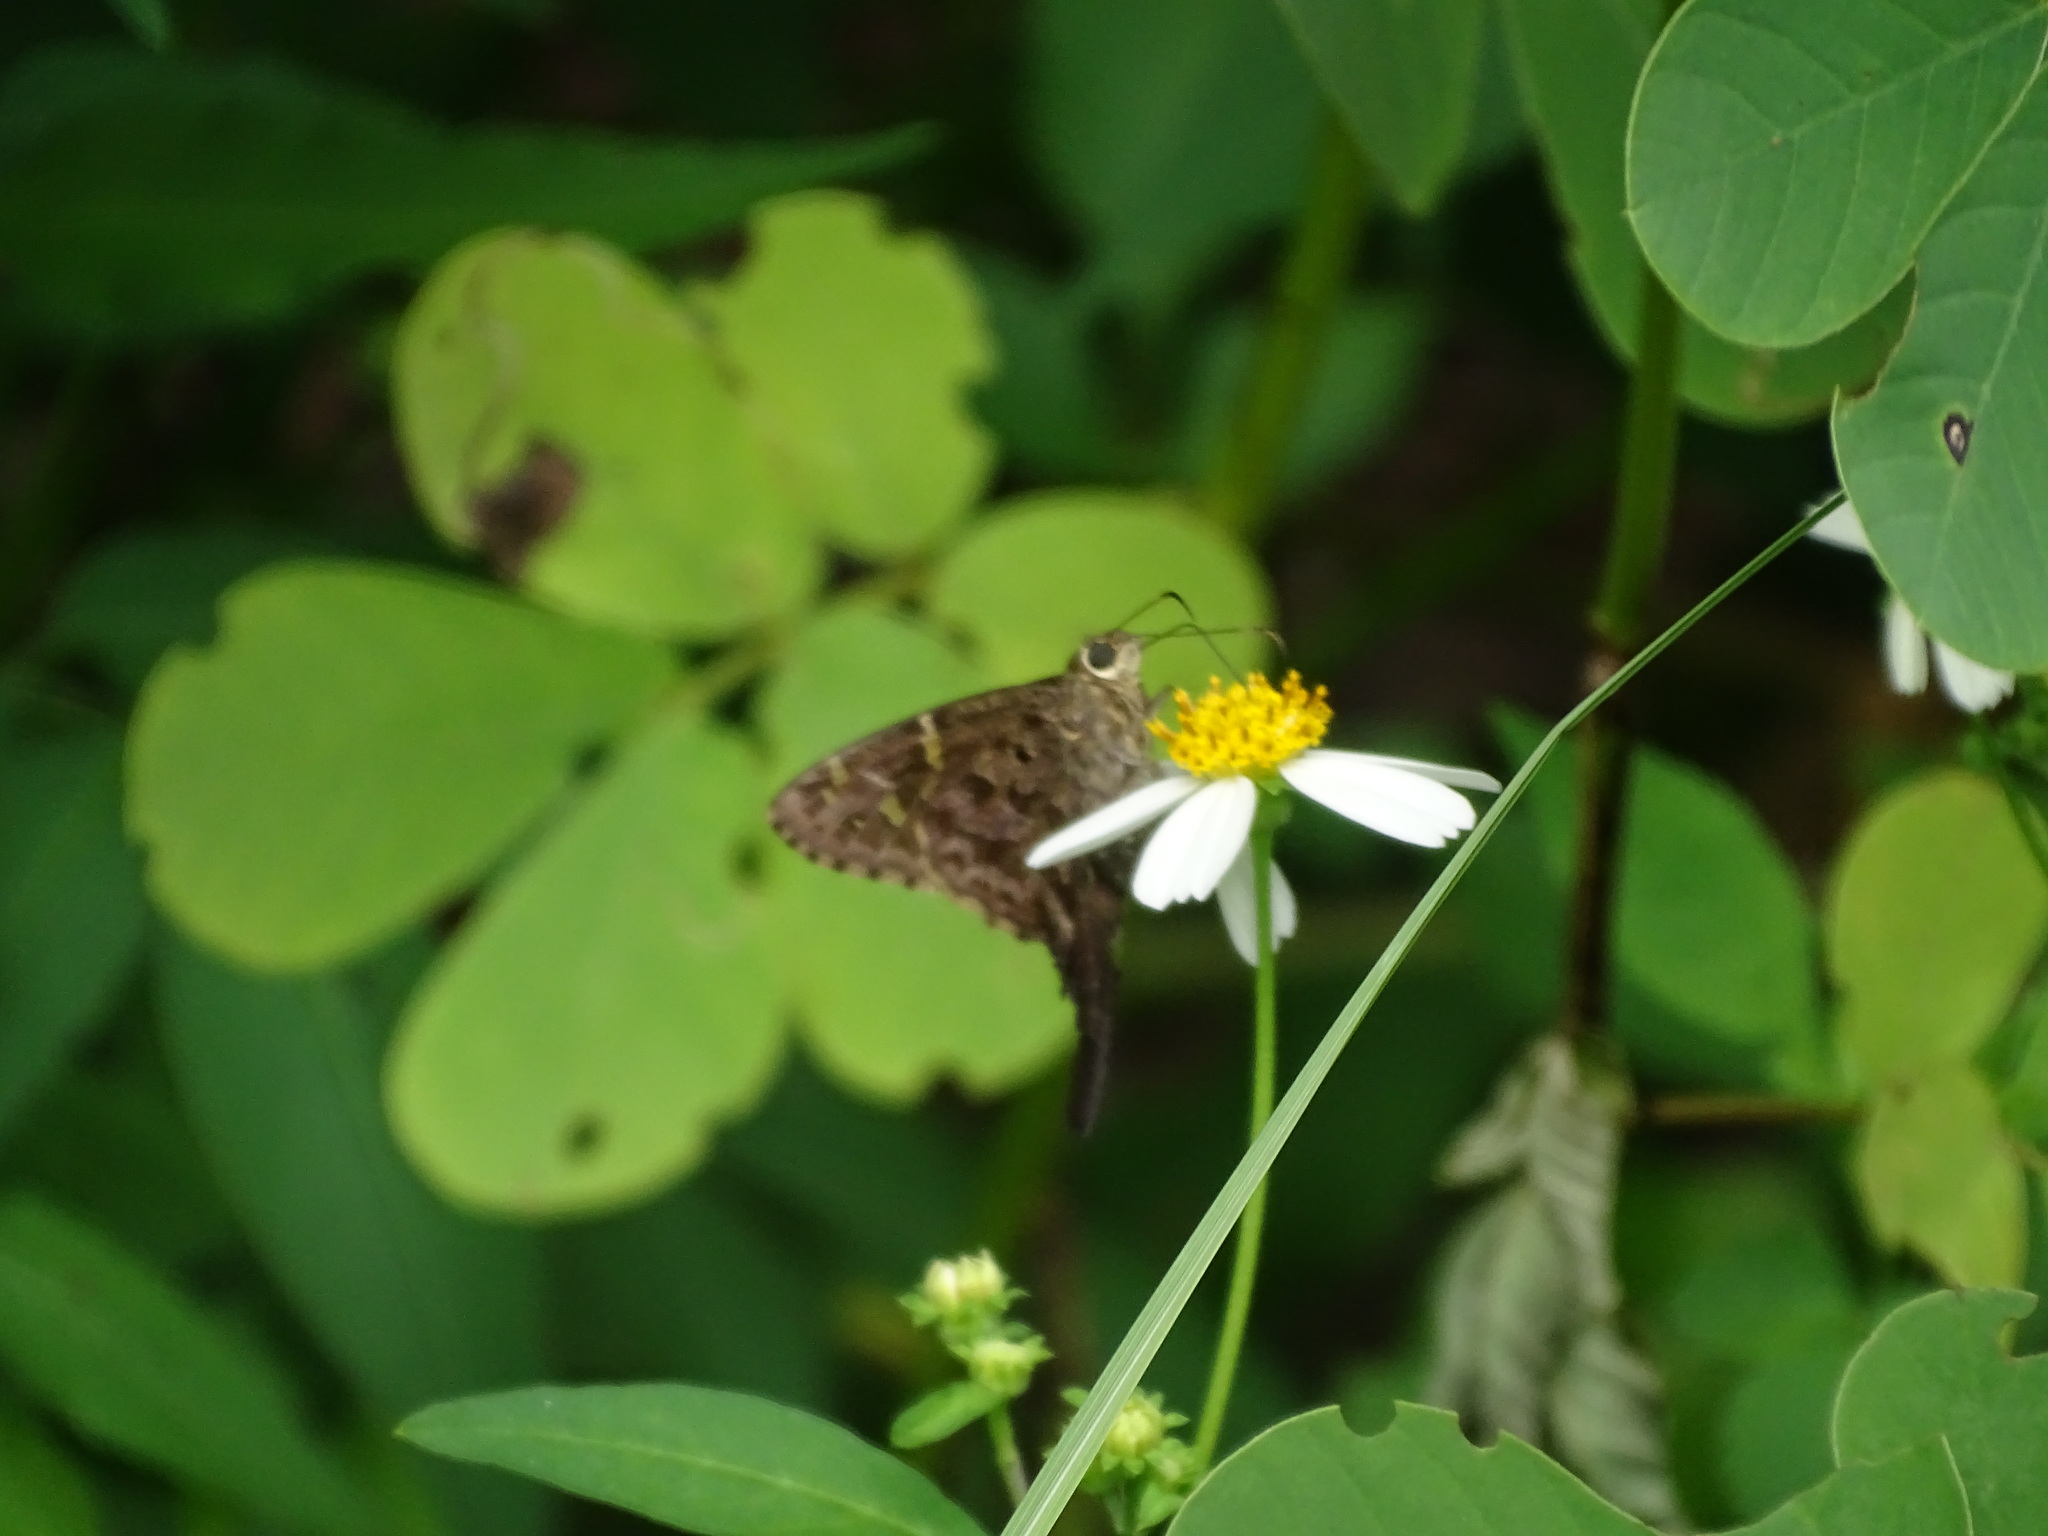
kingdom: Animalia
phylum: Arthropoda
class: Insecta
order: Lepidoptera
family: Hesperiidae
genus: Thorybes
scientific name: Thorybes
